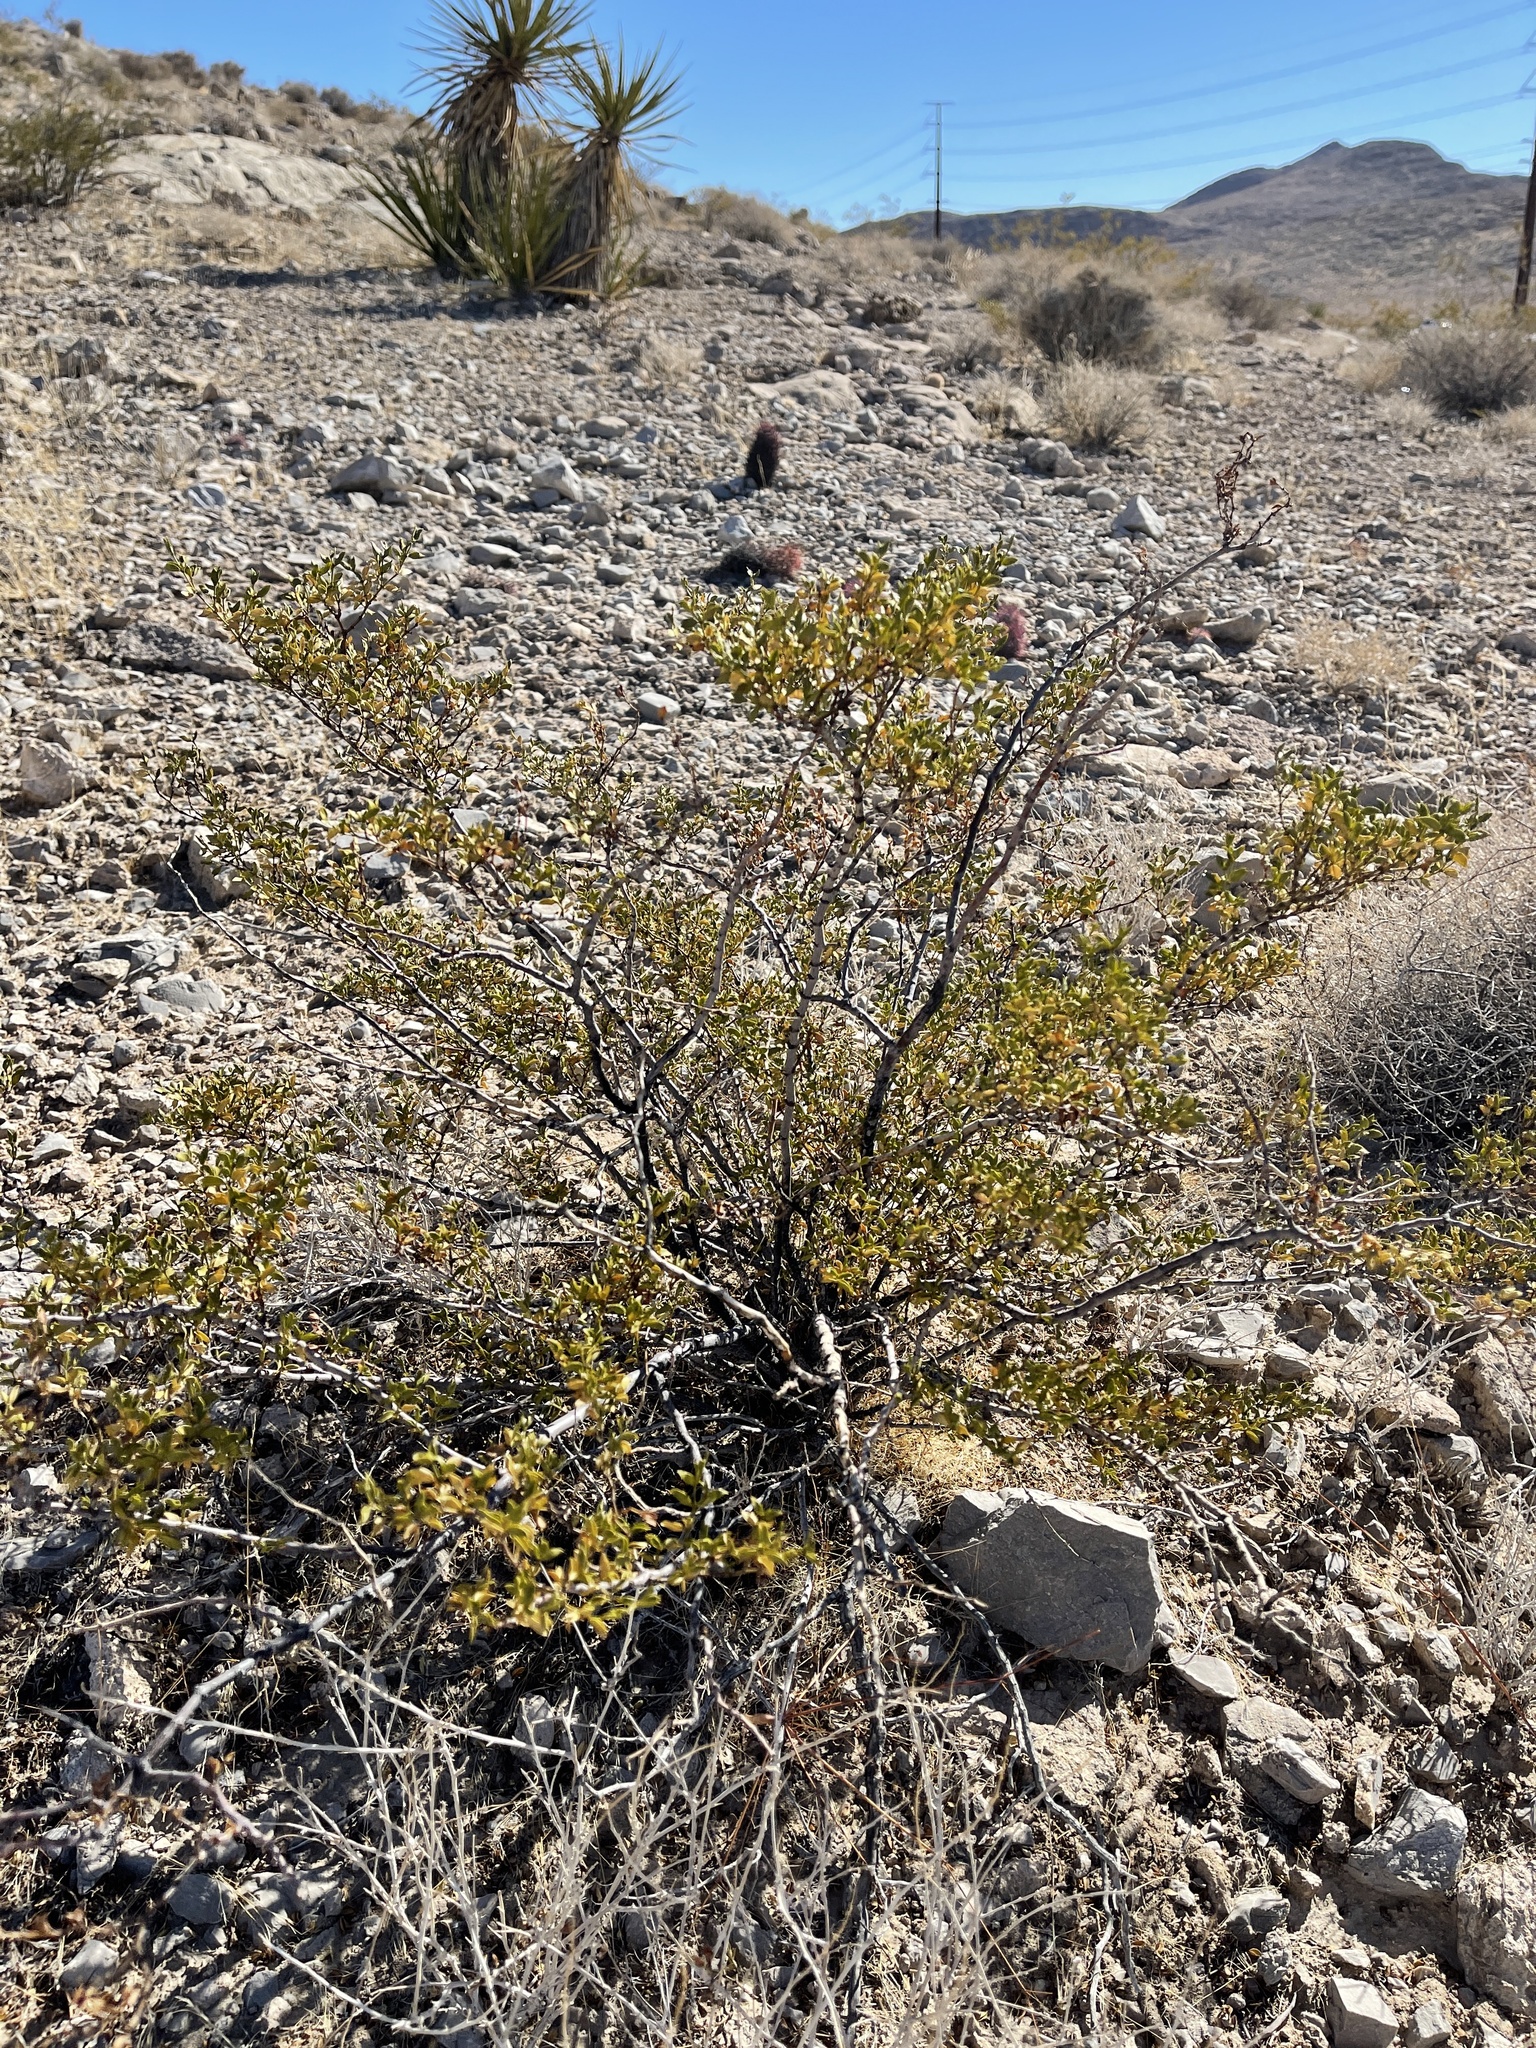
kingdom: Plantae
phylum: Tracheophyta
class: Magnoliopsida
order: Zygophyllales
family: Zygophyllaceae
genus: Larrea
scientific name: Larrea tridentata
